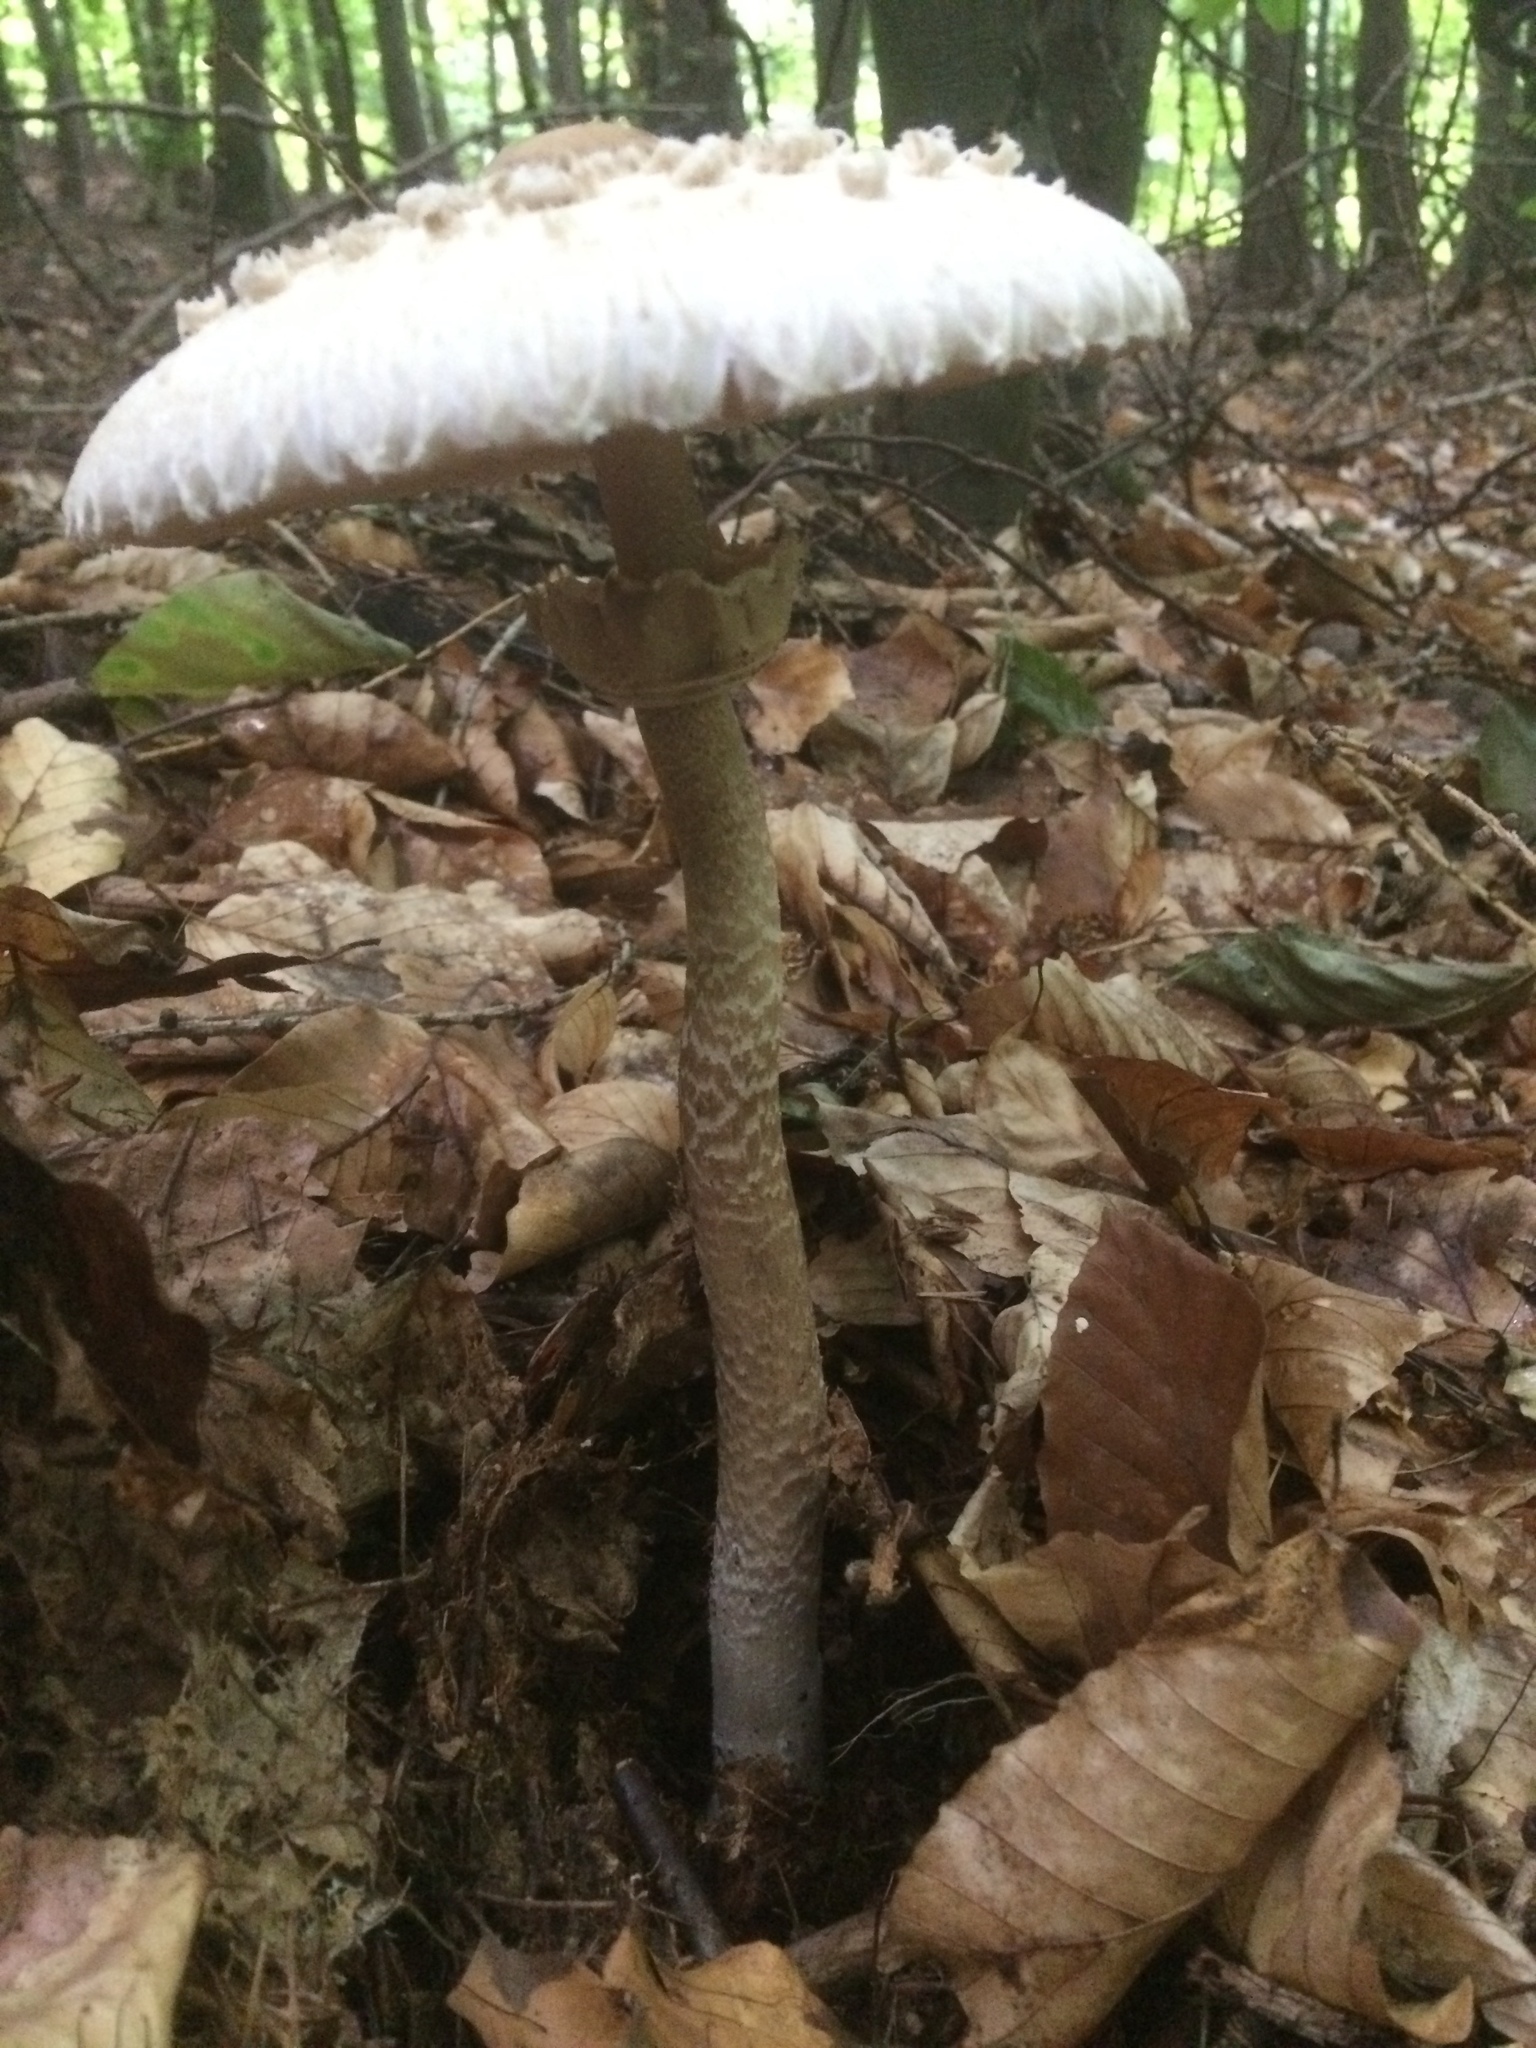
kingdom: Fungi
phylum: Basidiomycota
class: Agaricomycetes
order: Agaricales
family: Agaricaceae
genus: Macrolepiota
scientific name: Macrolepiota procera
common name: Parasol
